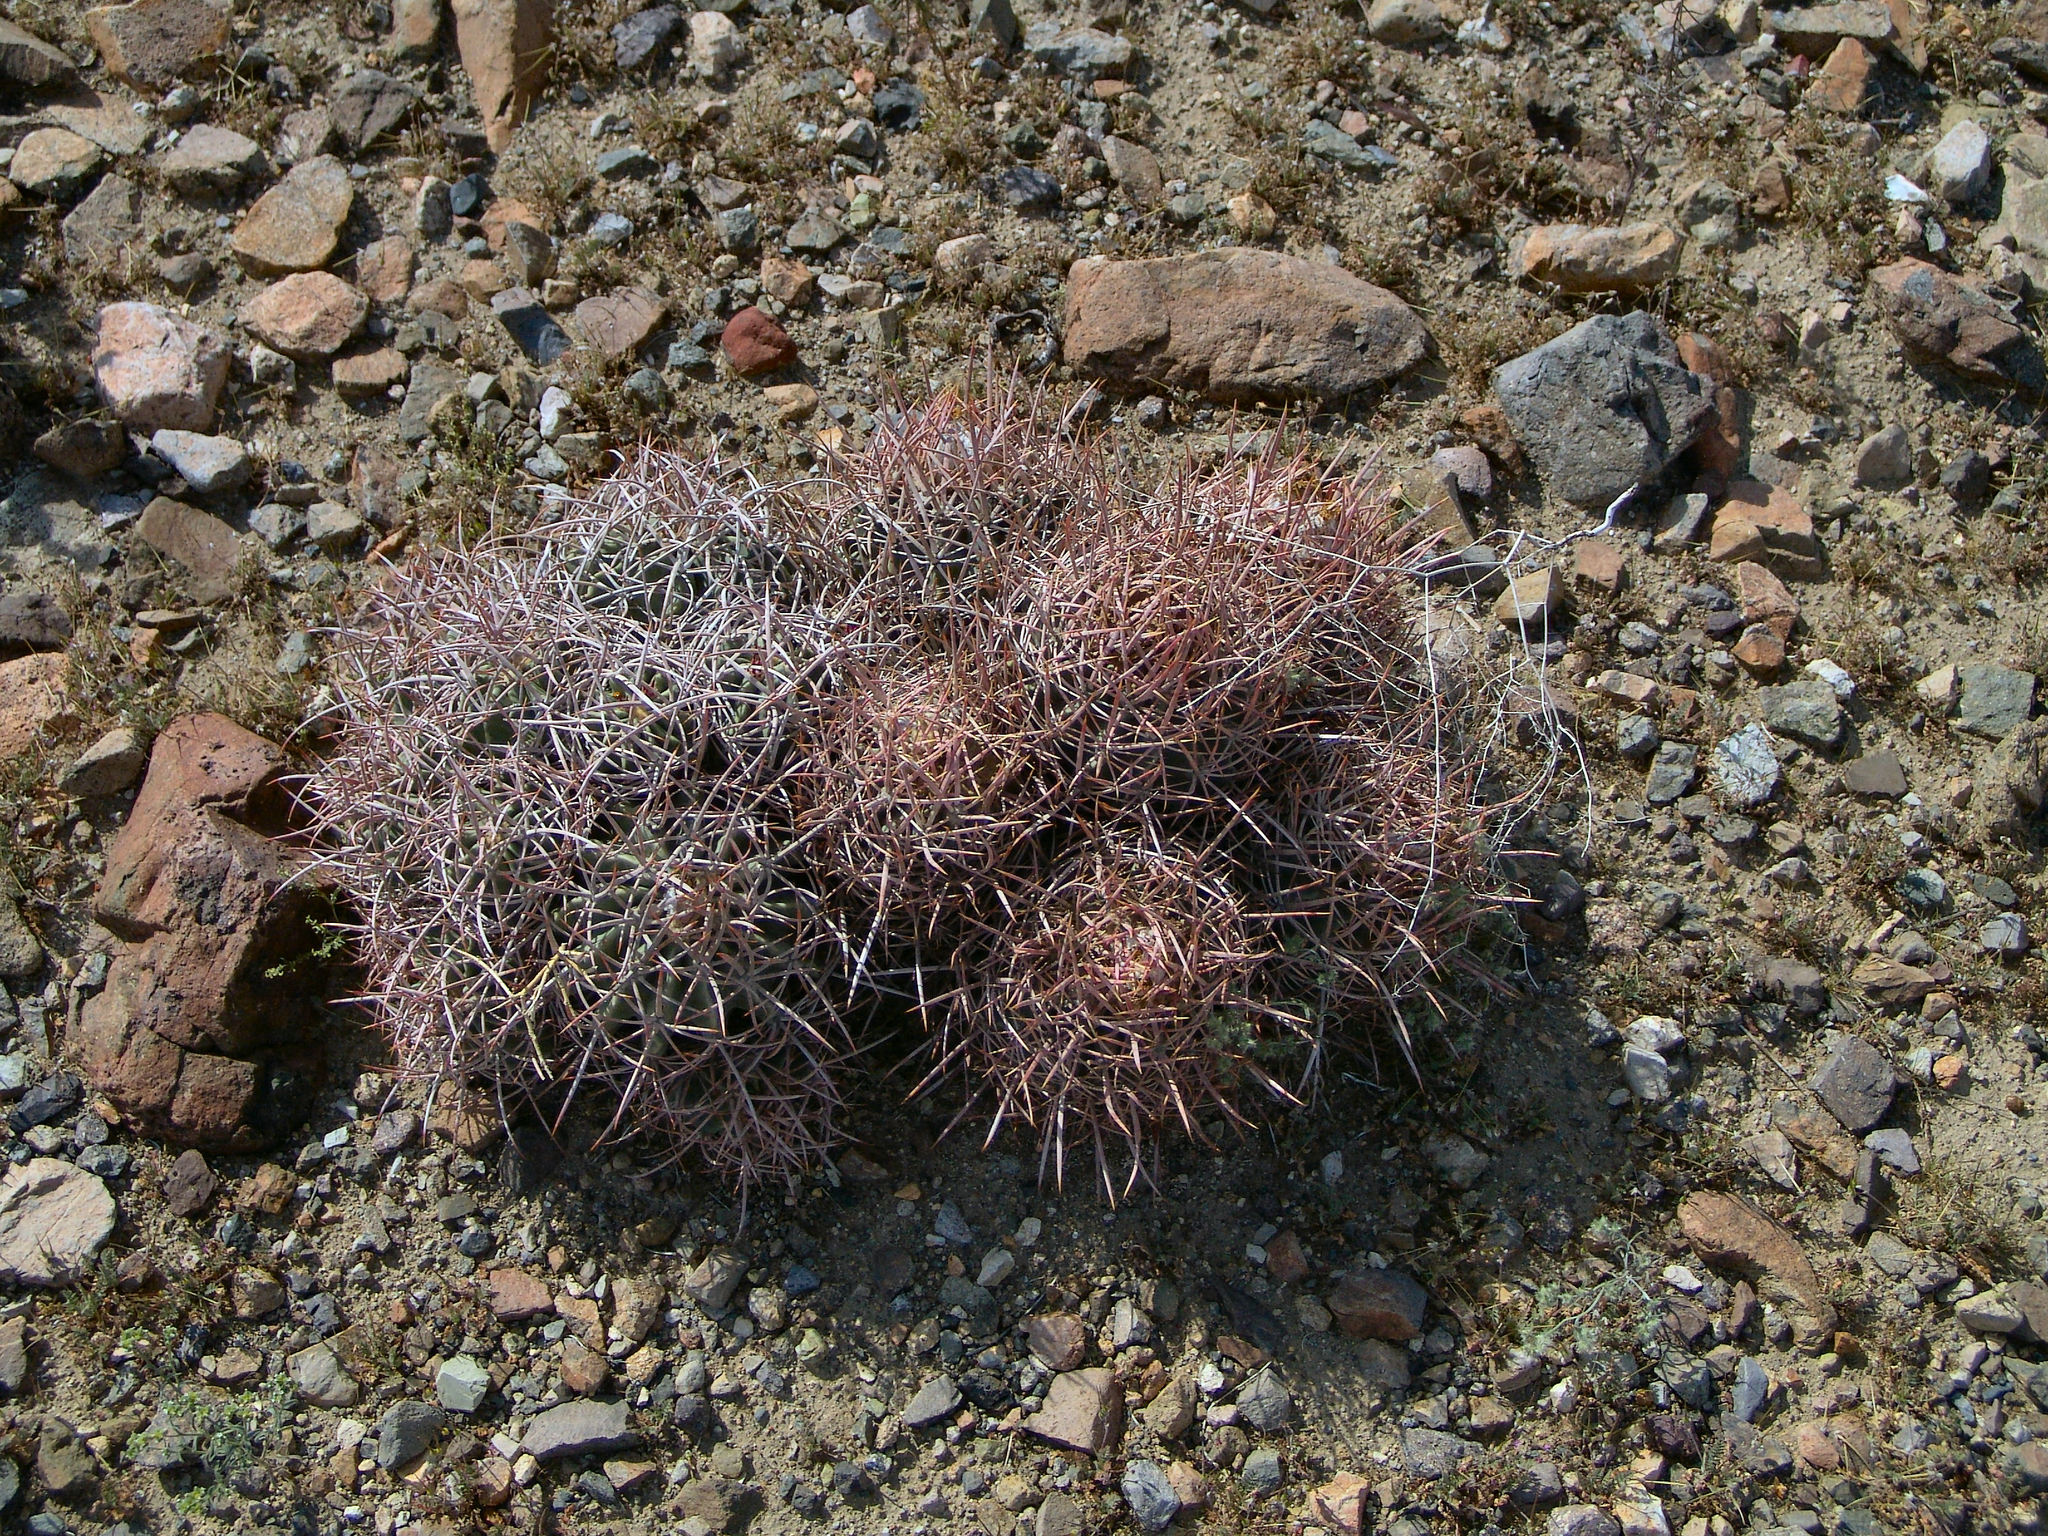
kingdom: Plantae
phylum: Tracheophyta
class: Magnoliopsida
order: Caryophyllales
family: Cactaceae
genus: Echinocactus
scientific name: Echinocactus polycephalus
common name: Cottontop cactus
